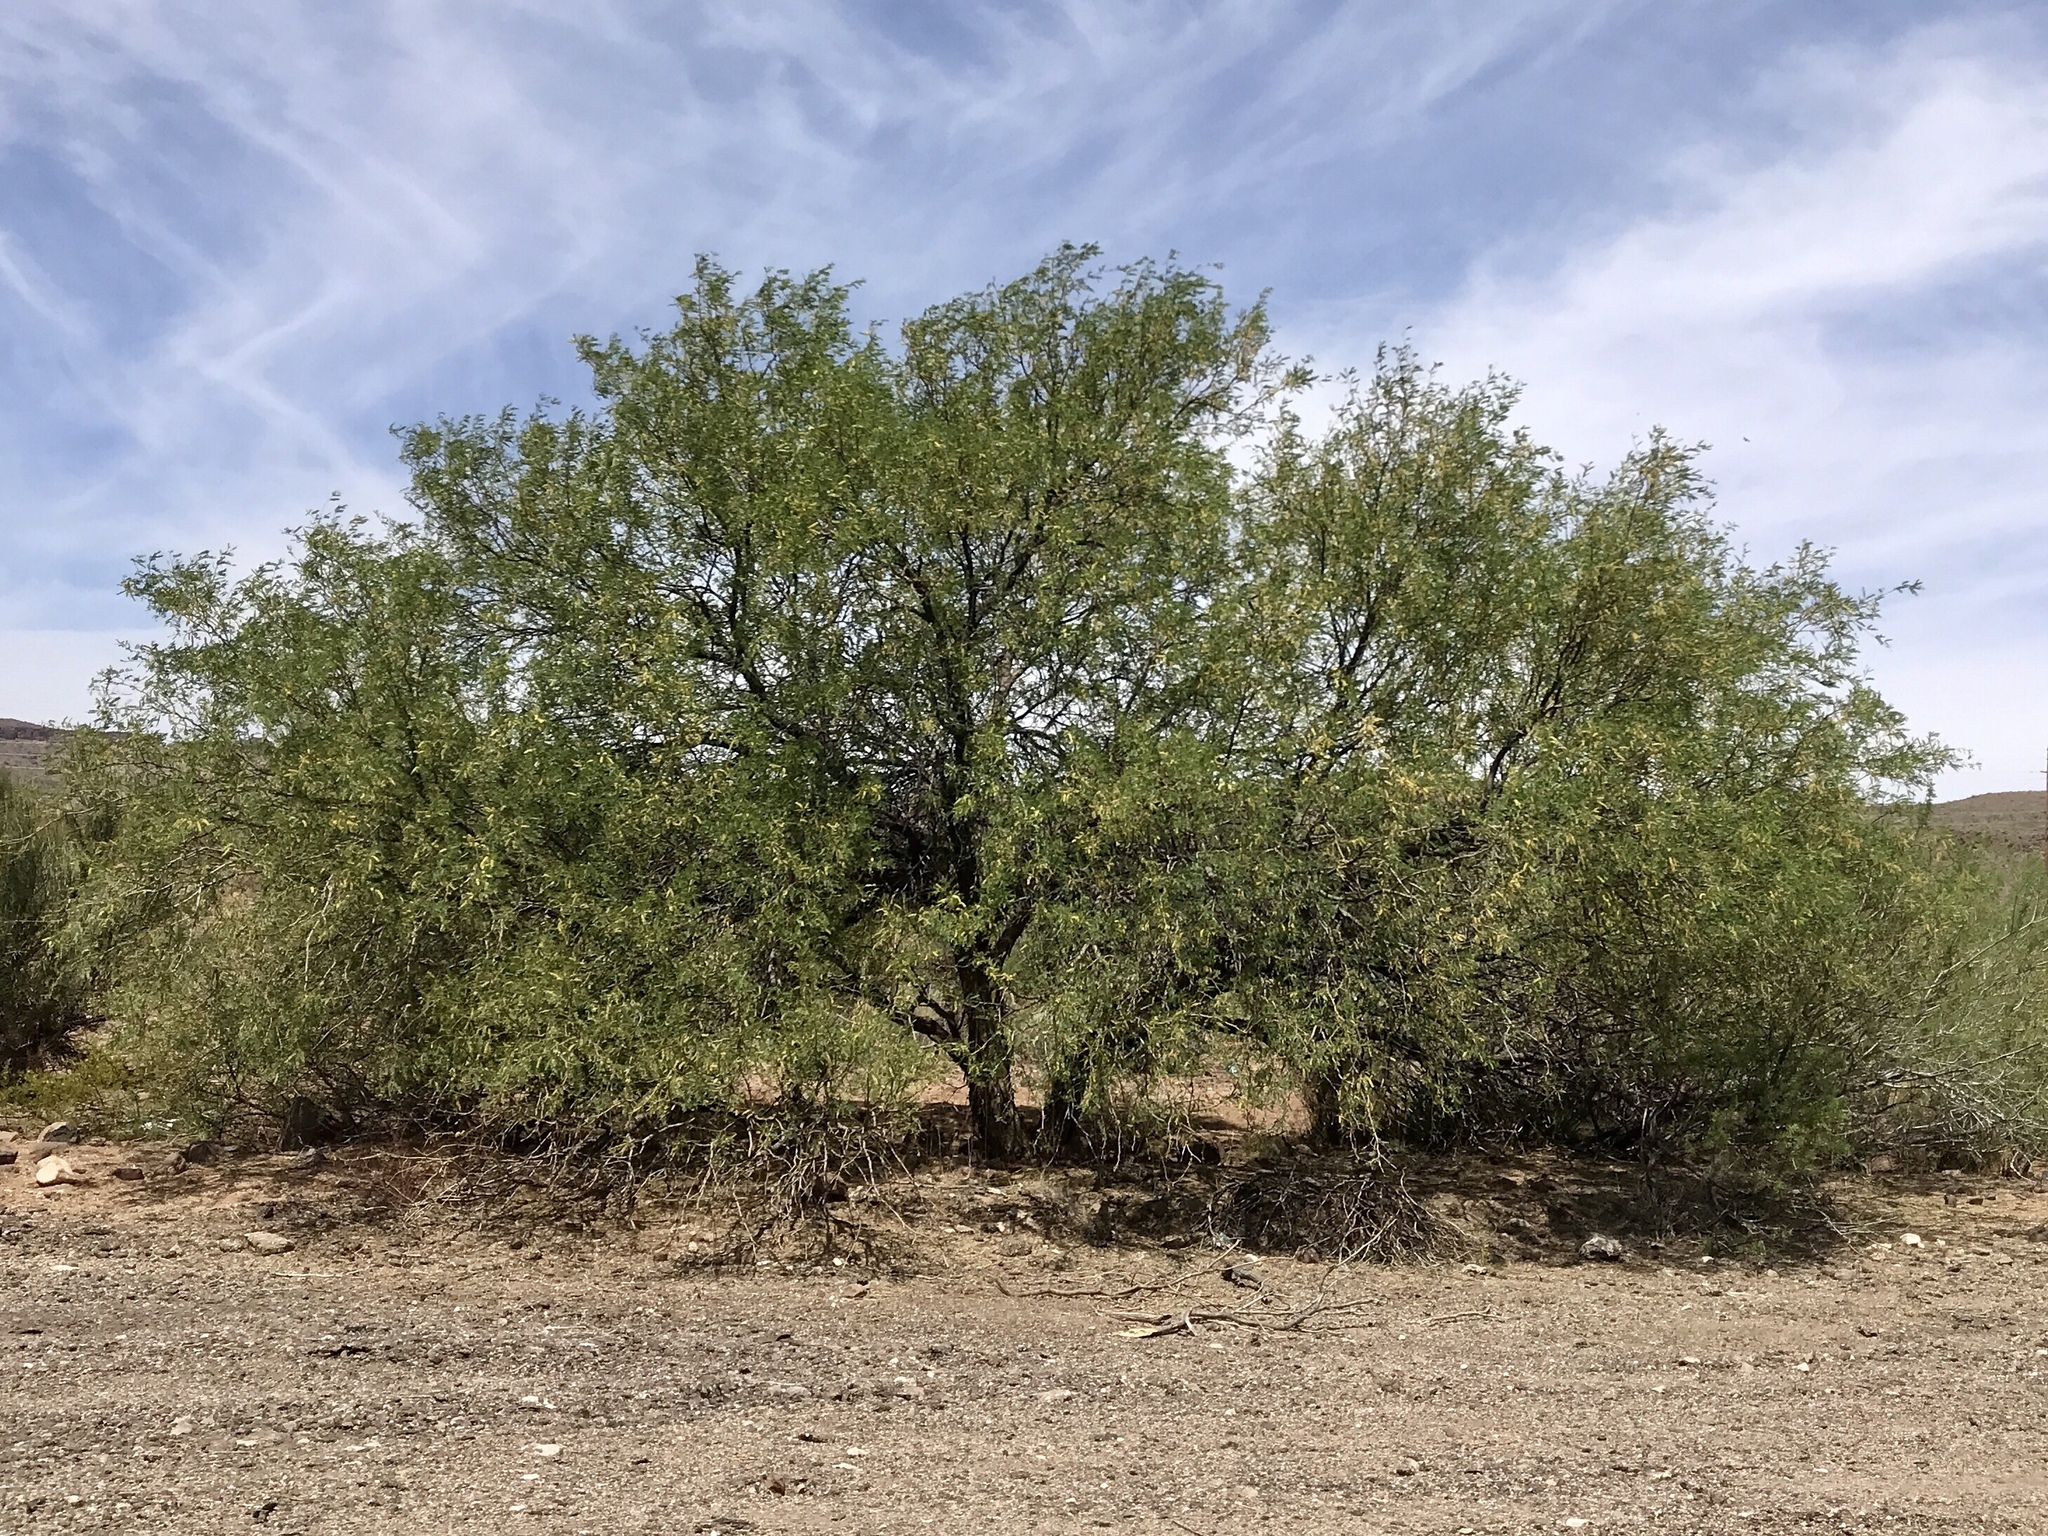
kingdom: Plantae
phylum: Tracheophyta
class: Magnoliopsida
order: Fabales
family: Fabaceae
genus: Prosopis
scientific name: Prosopis glandulosa
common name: Honey mesquite
